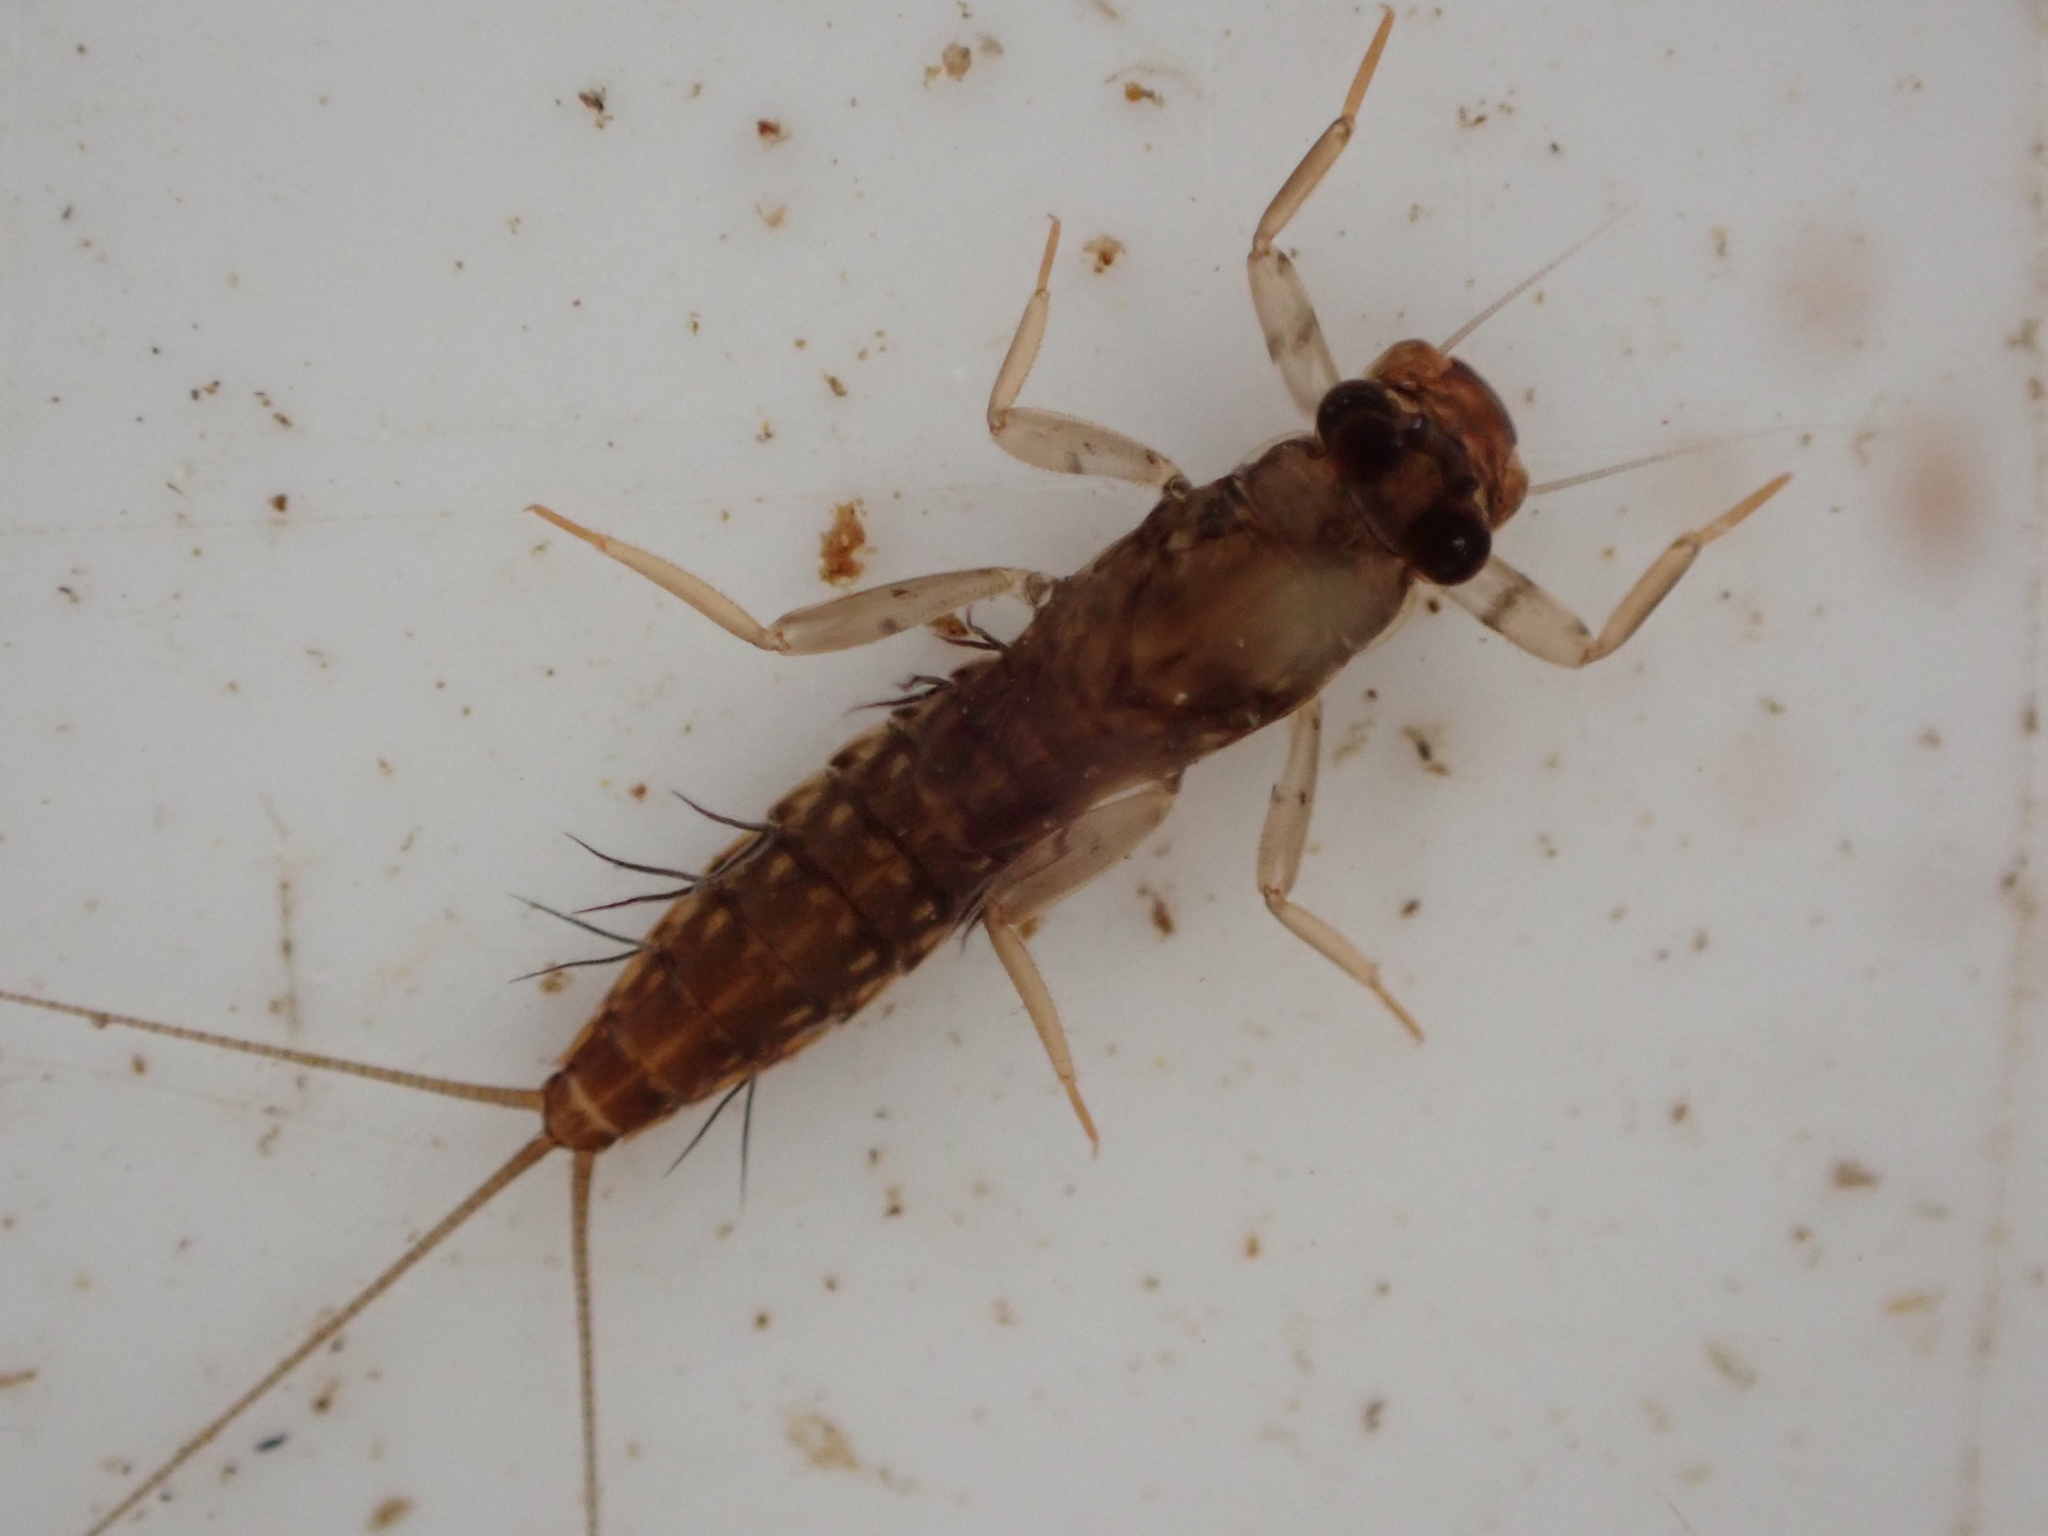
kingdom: Animalia
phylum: Arthropoda
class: Insecta
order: Ephemeroptera
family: Leptophlebiidae
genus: Neozephlebia
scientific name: Neozephlebia scita
